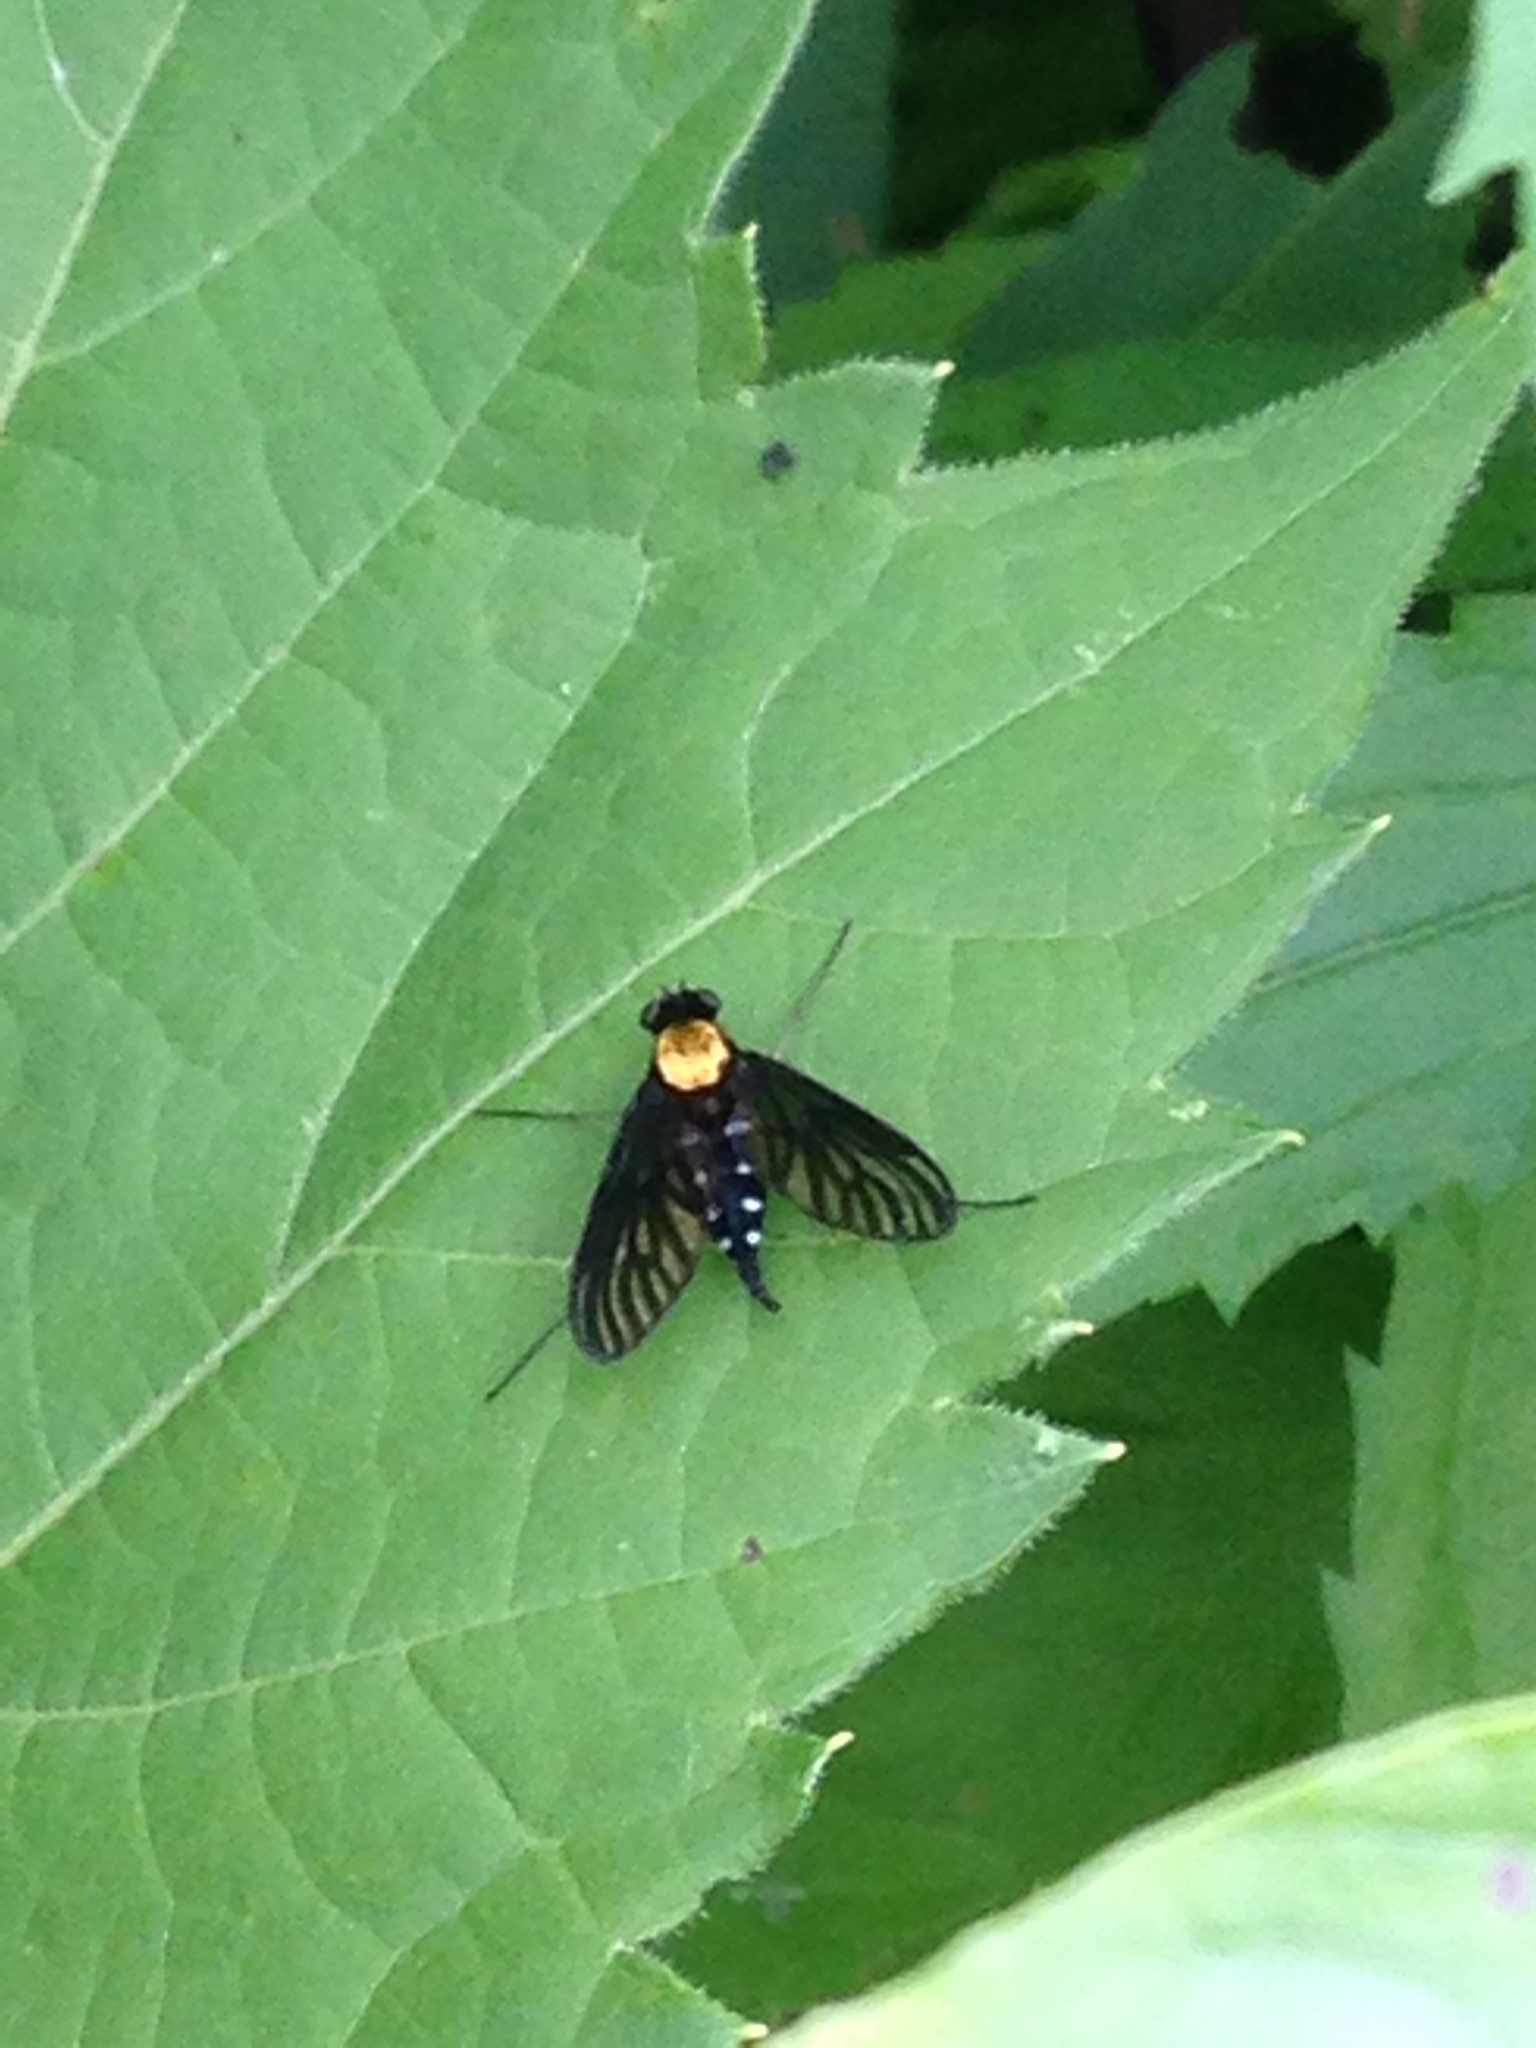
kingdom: Animalia
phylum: Arthropoda
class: Insecta
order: Diptera
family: Rhagionidae
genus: Chrysopilus
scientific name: Chrysopilus thoracicus
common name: Golden-backed snipe fly
